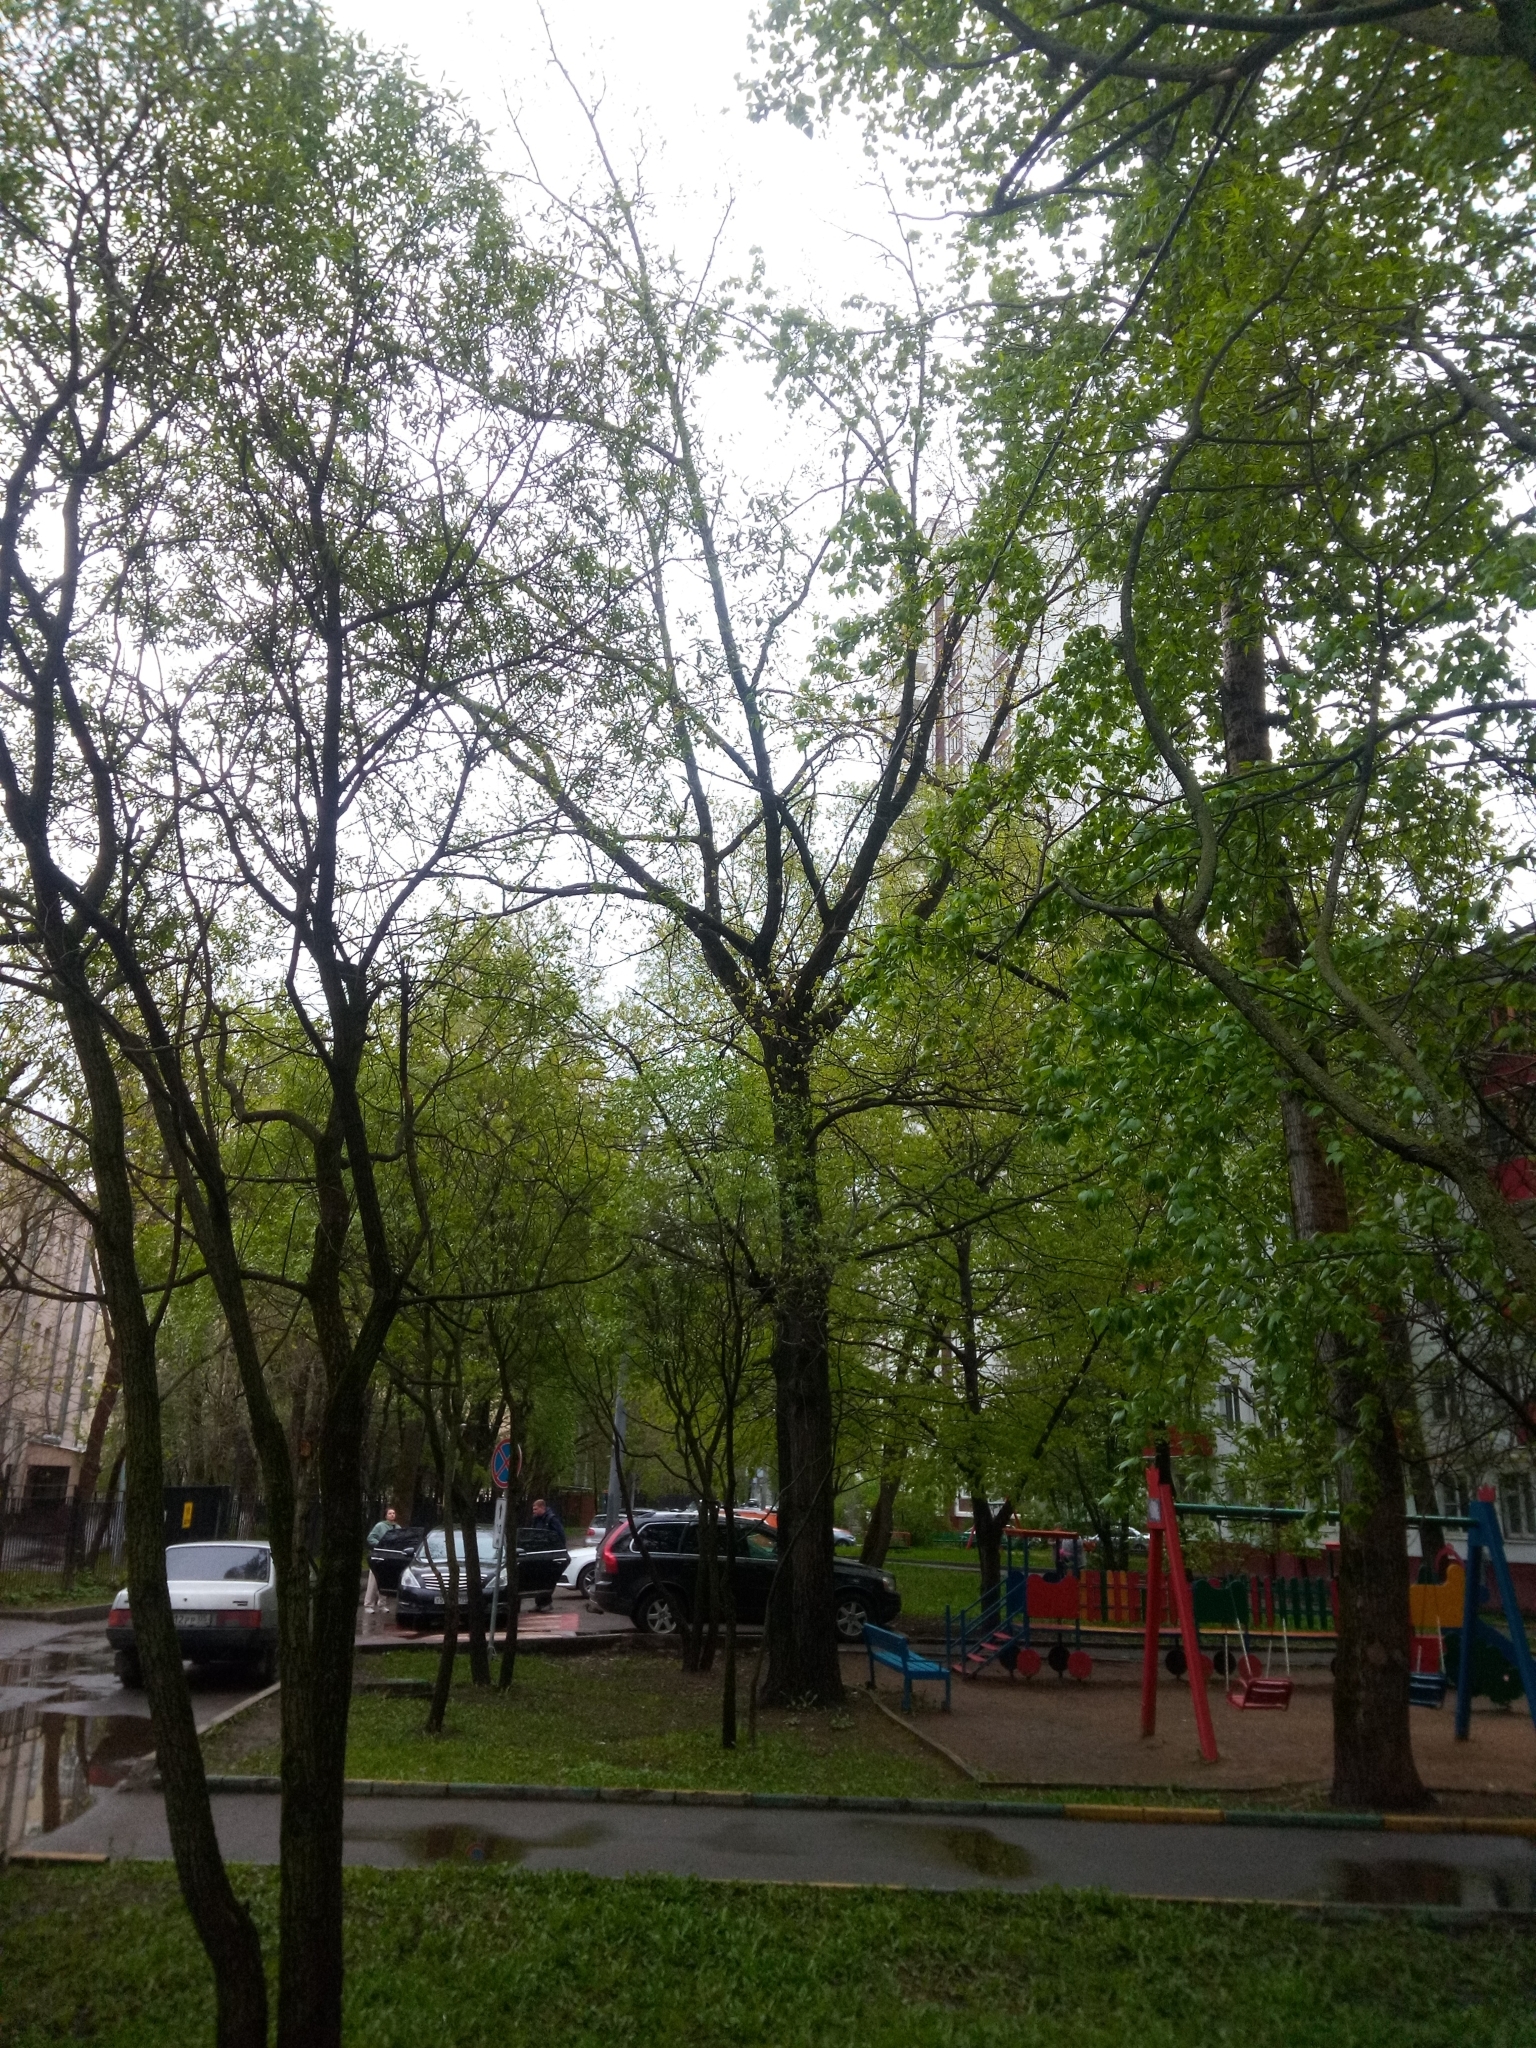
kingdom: Plantae
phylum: Tracheophyta
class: Magnoliopsida
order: Fagales
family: Fagaceae
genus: Quercus
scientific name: Quercus robur
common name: Pedunculate oak
